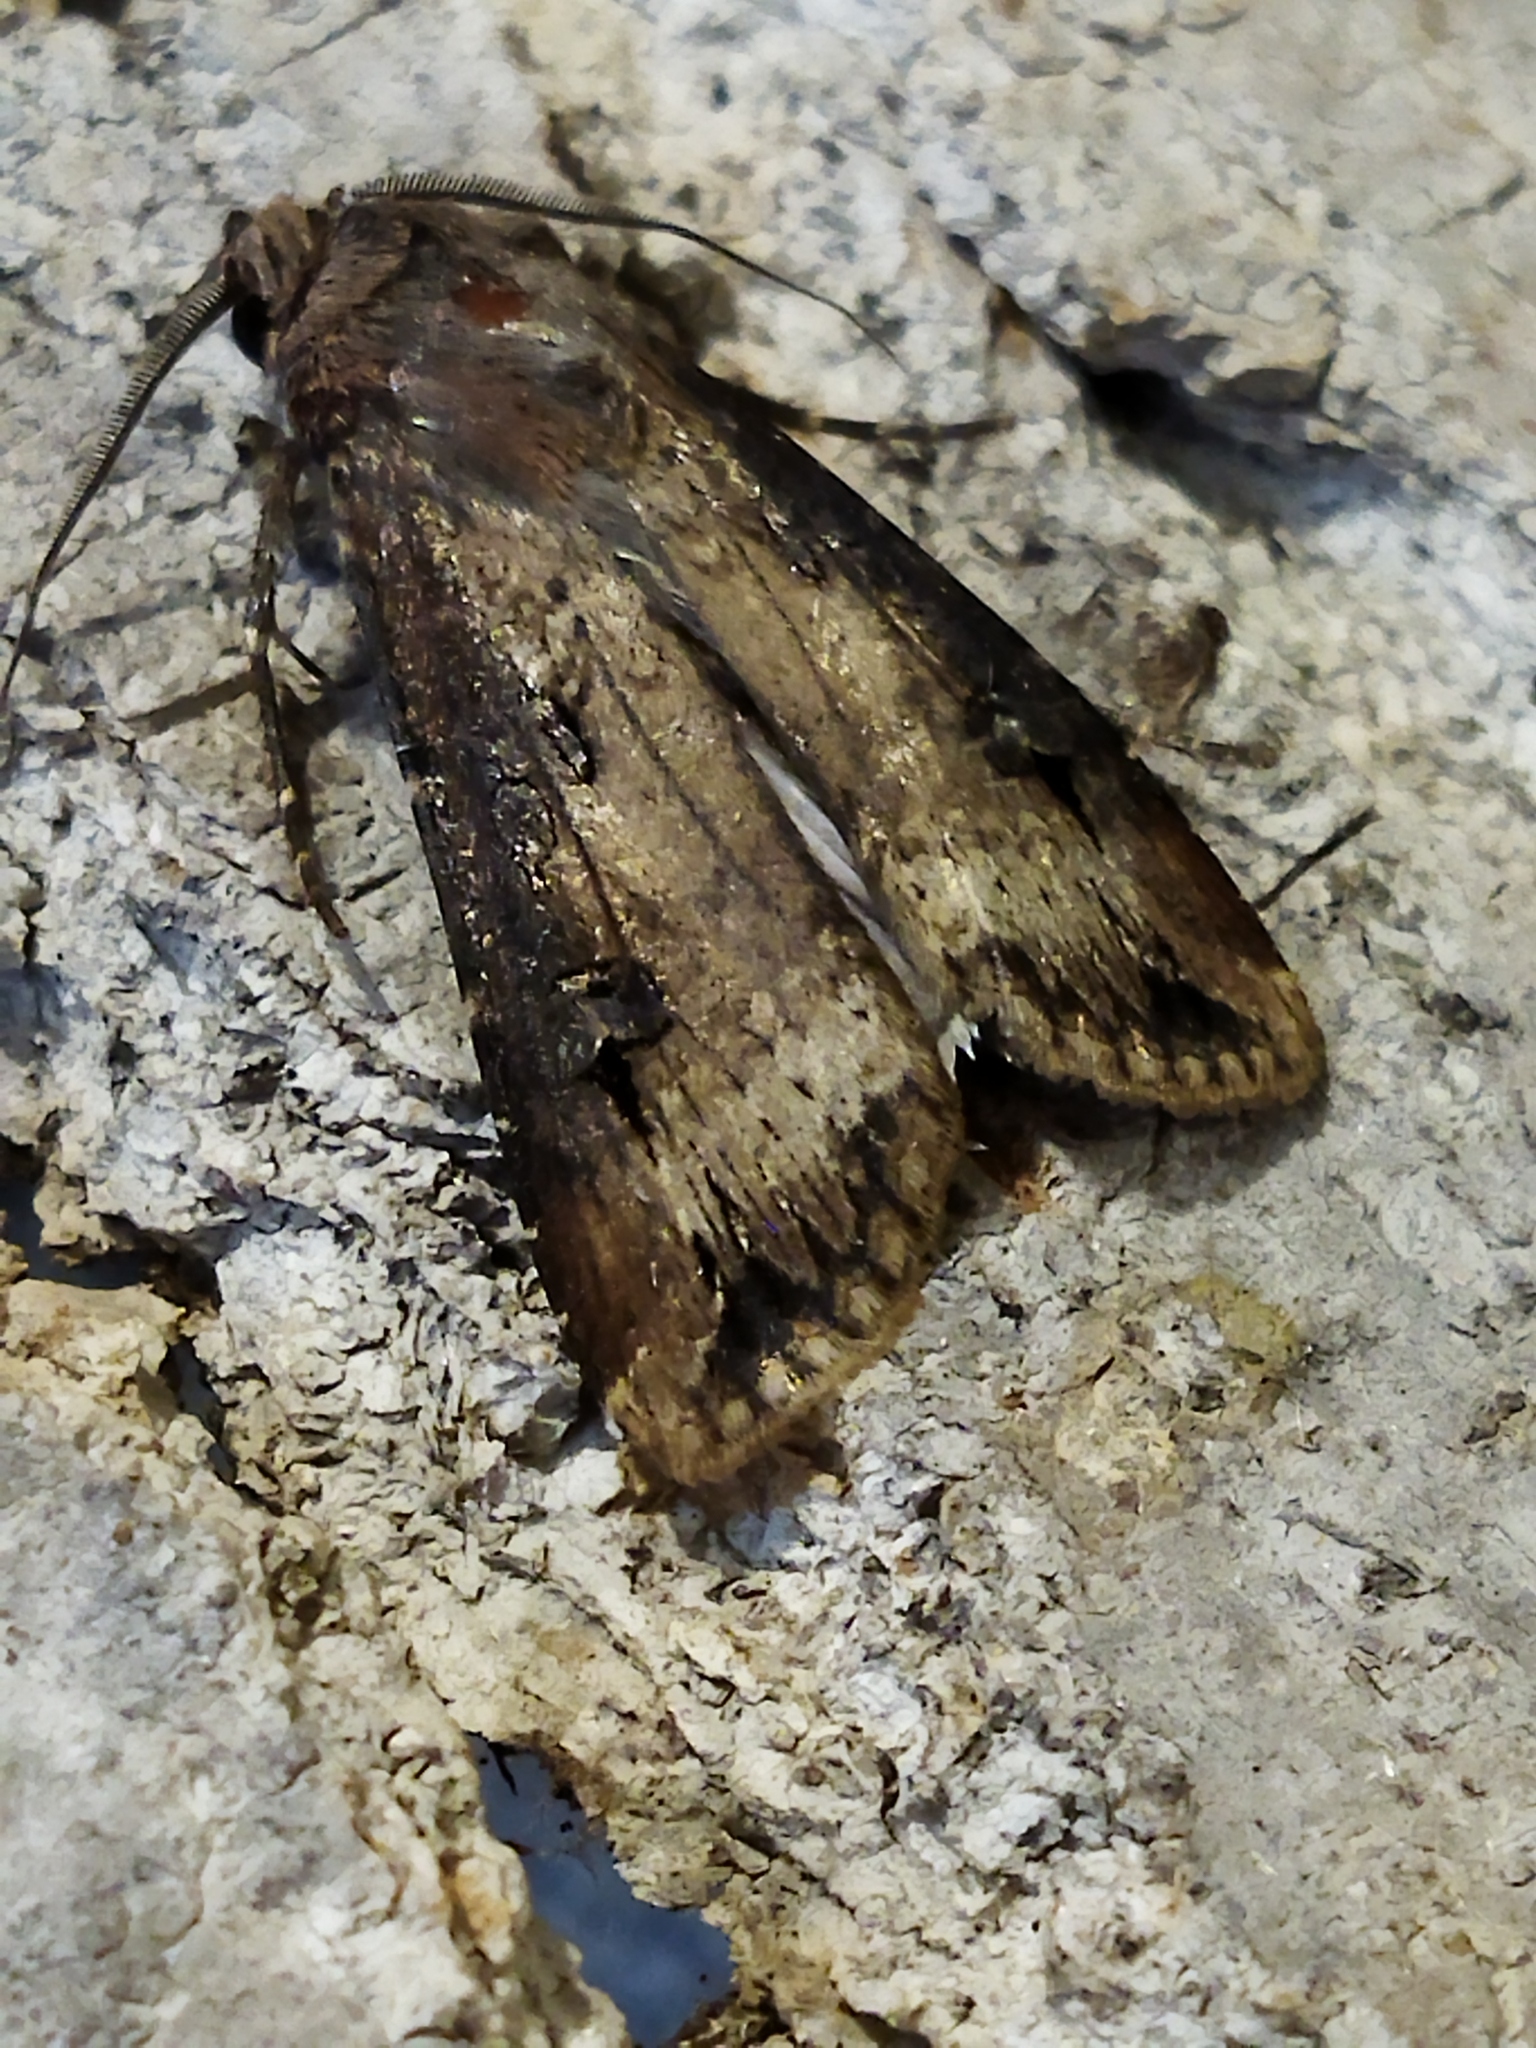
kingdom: Animalia
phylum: Arthropoda
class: Insecta
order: Lepidoptera
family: Noctuidae
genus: Agrotis
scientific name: Agrotis ipsilon
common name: Dark sword-grass
